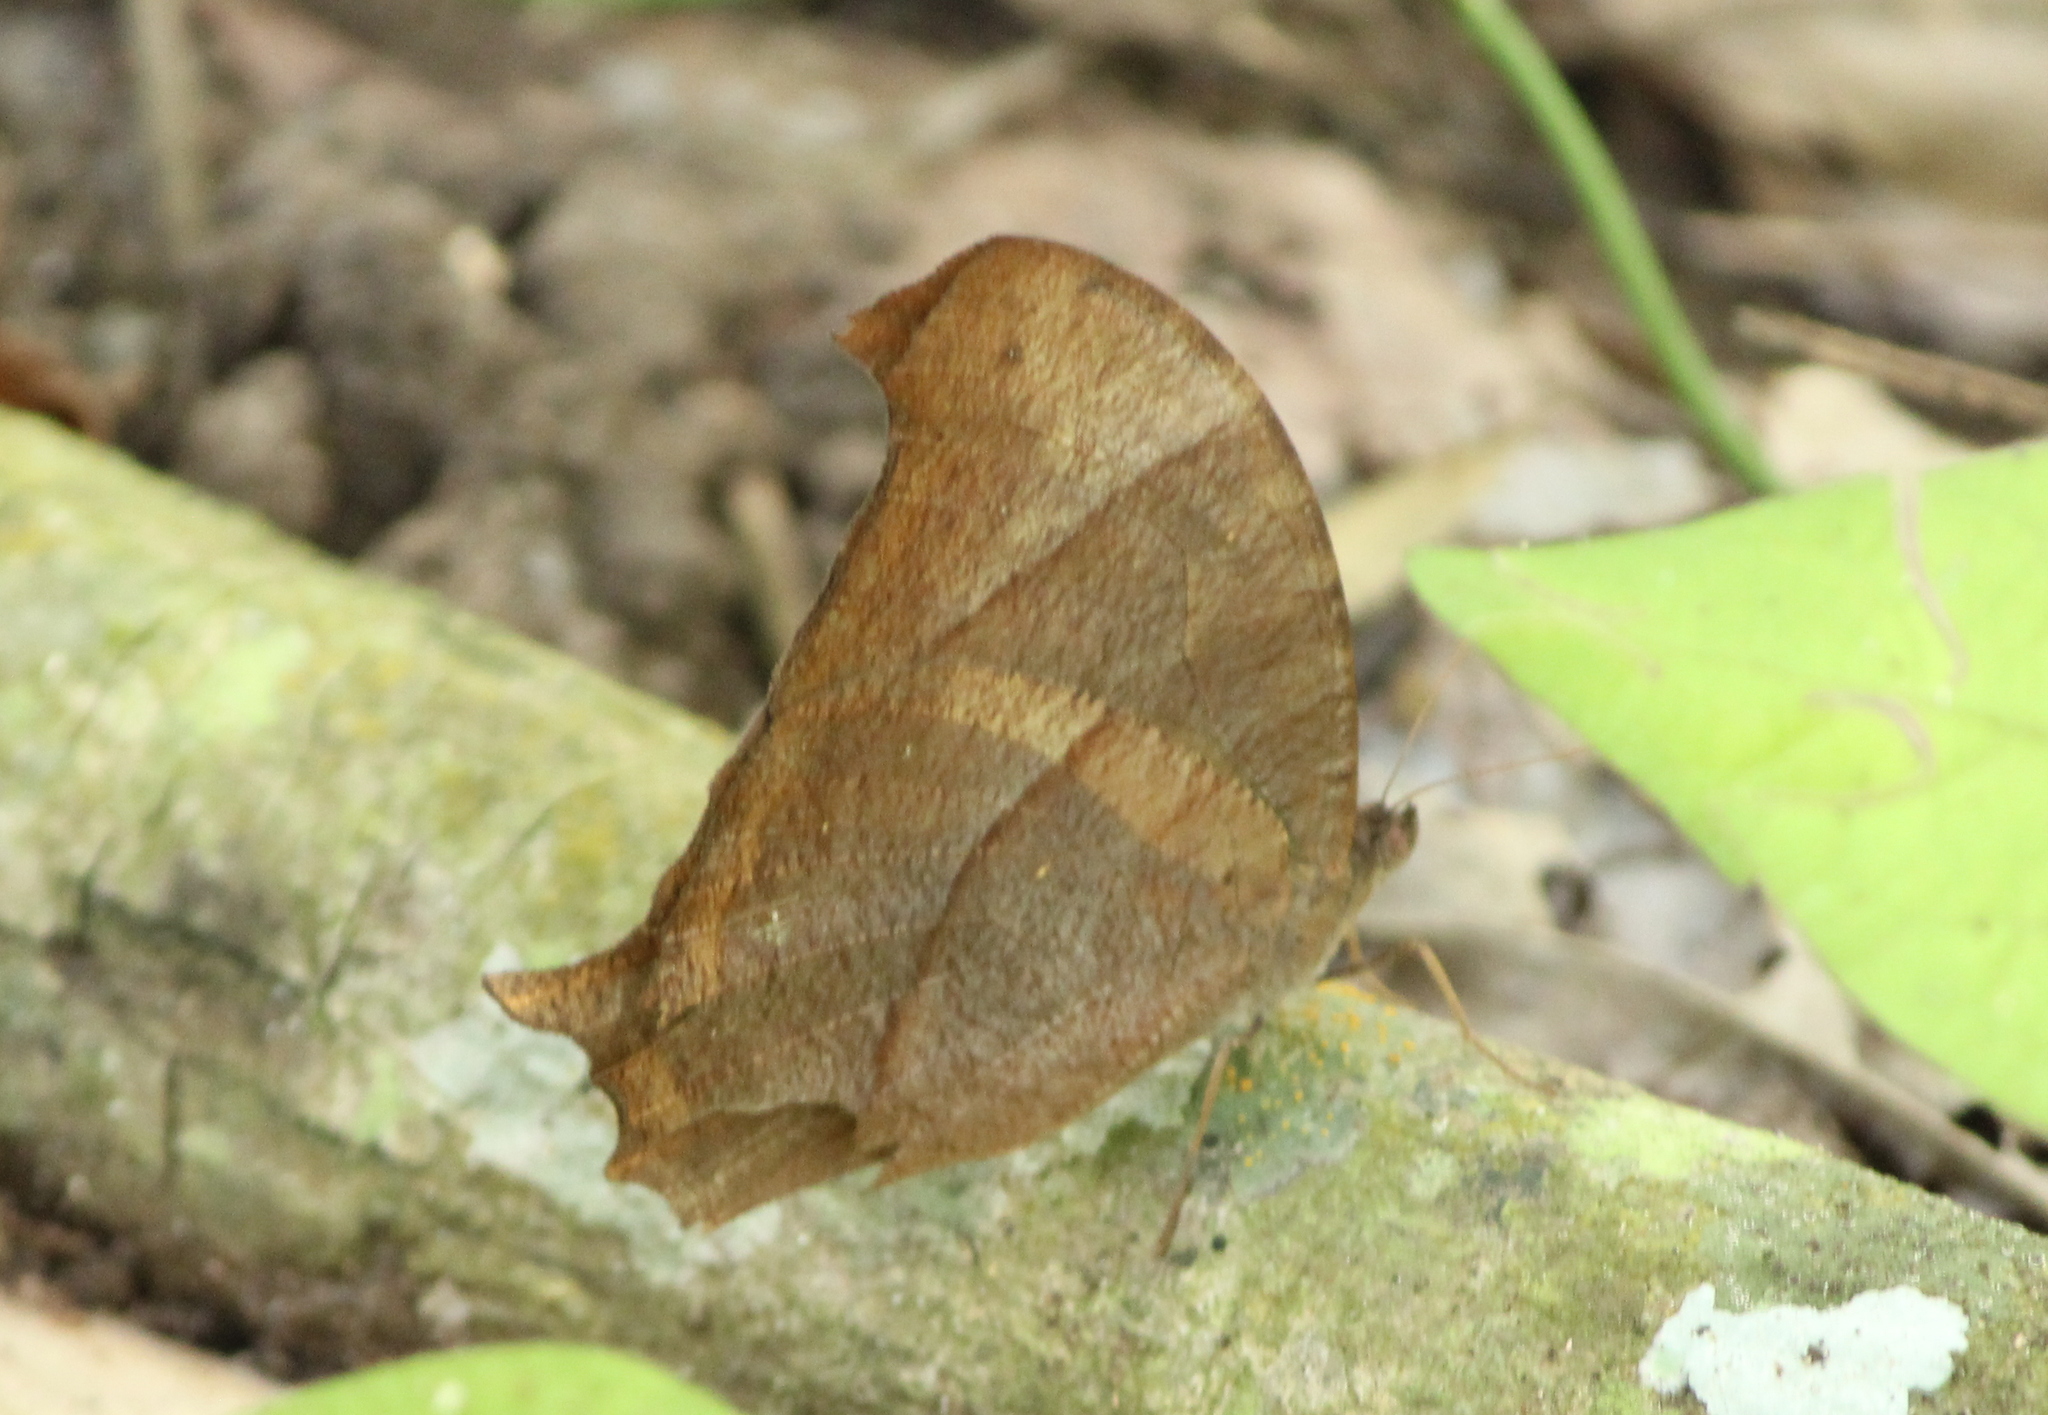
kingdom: Animalia
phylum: Arthropoda
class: Insecta
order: Lepidoptera
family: Nymphalidae
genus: Melanitis
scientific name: Melanitis phedima
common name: Dark evening brown
